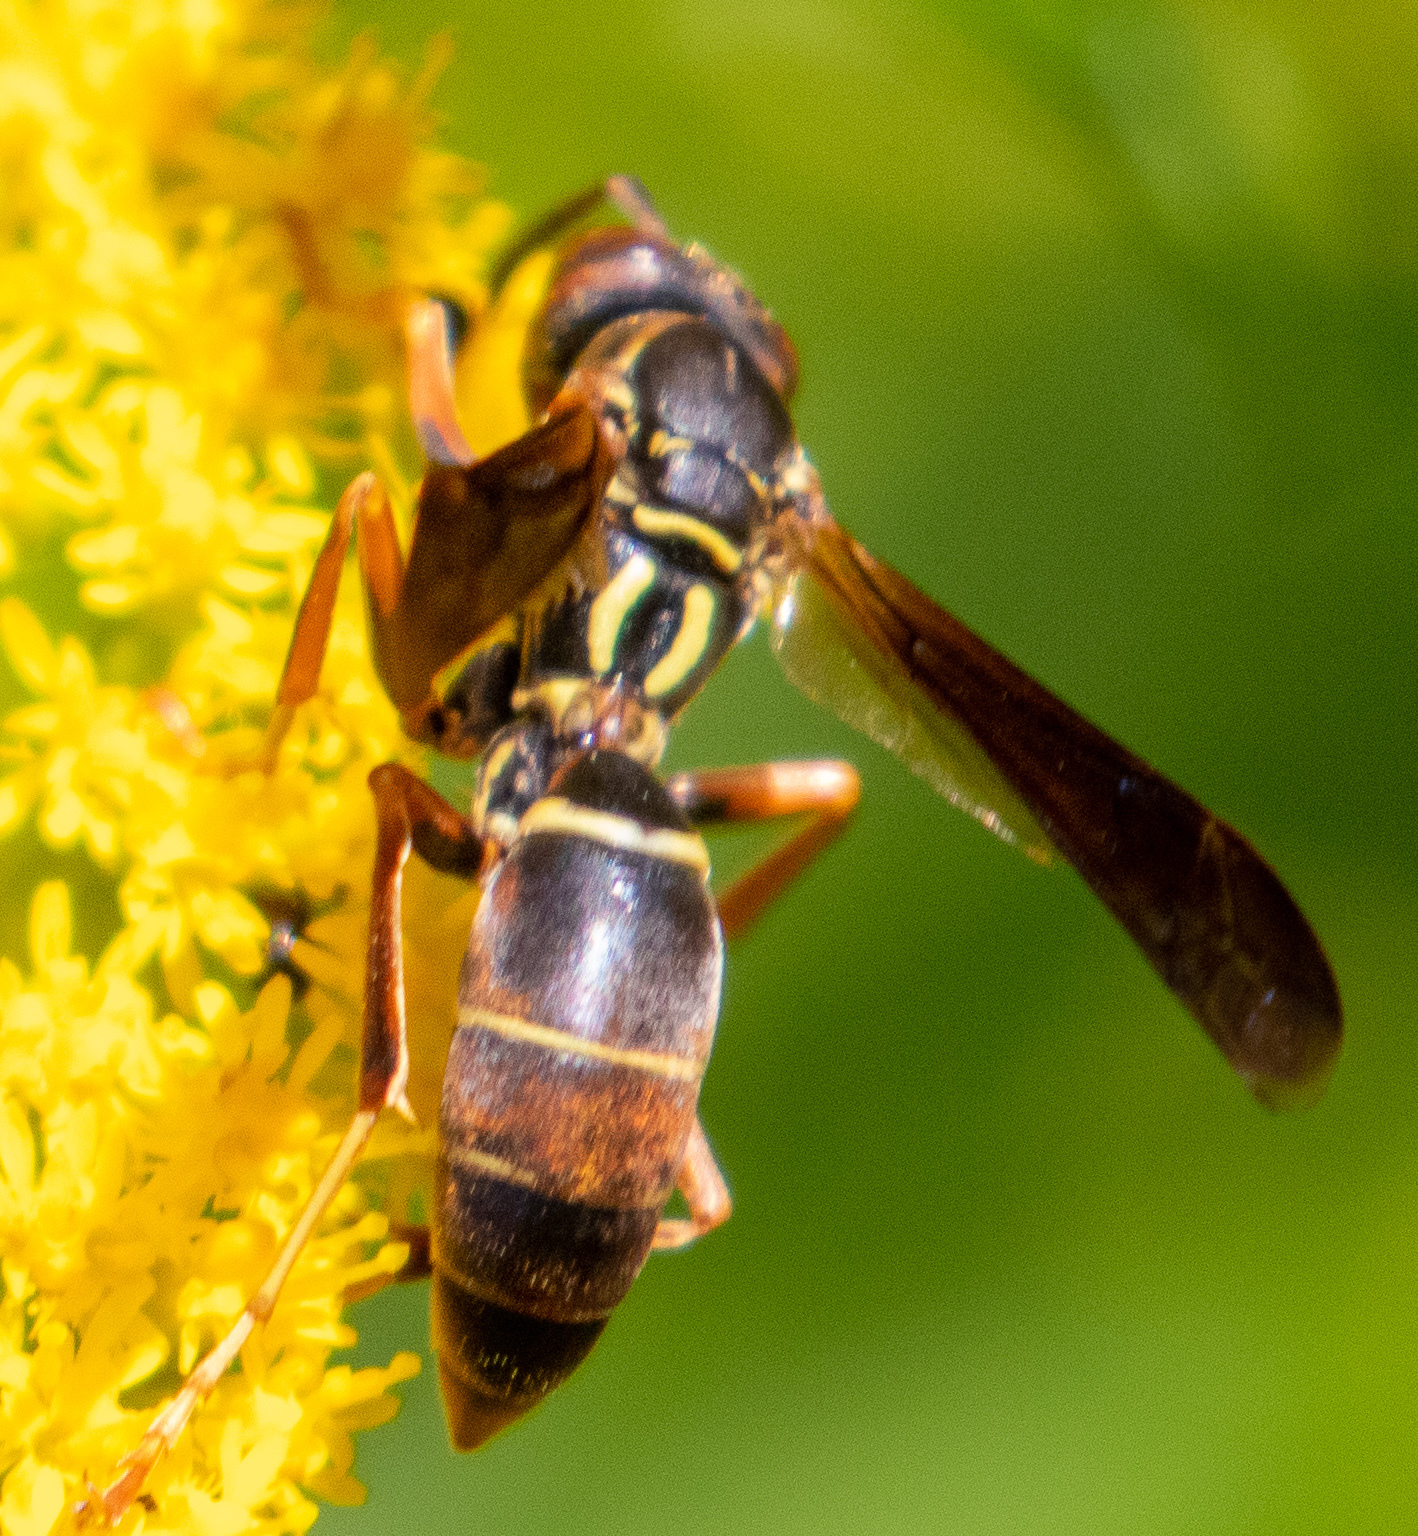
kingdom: Animalia
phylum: Arthropoda
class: Insecta
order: Hymenoptera
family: Eumenidae
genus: Polistes
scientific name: Polistes fuscatus
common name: Dark paper wasp
